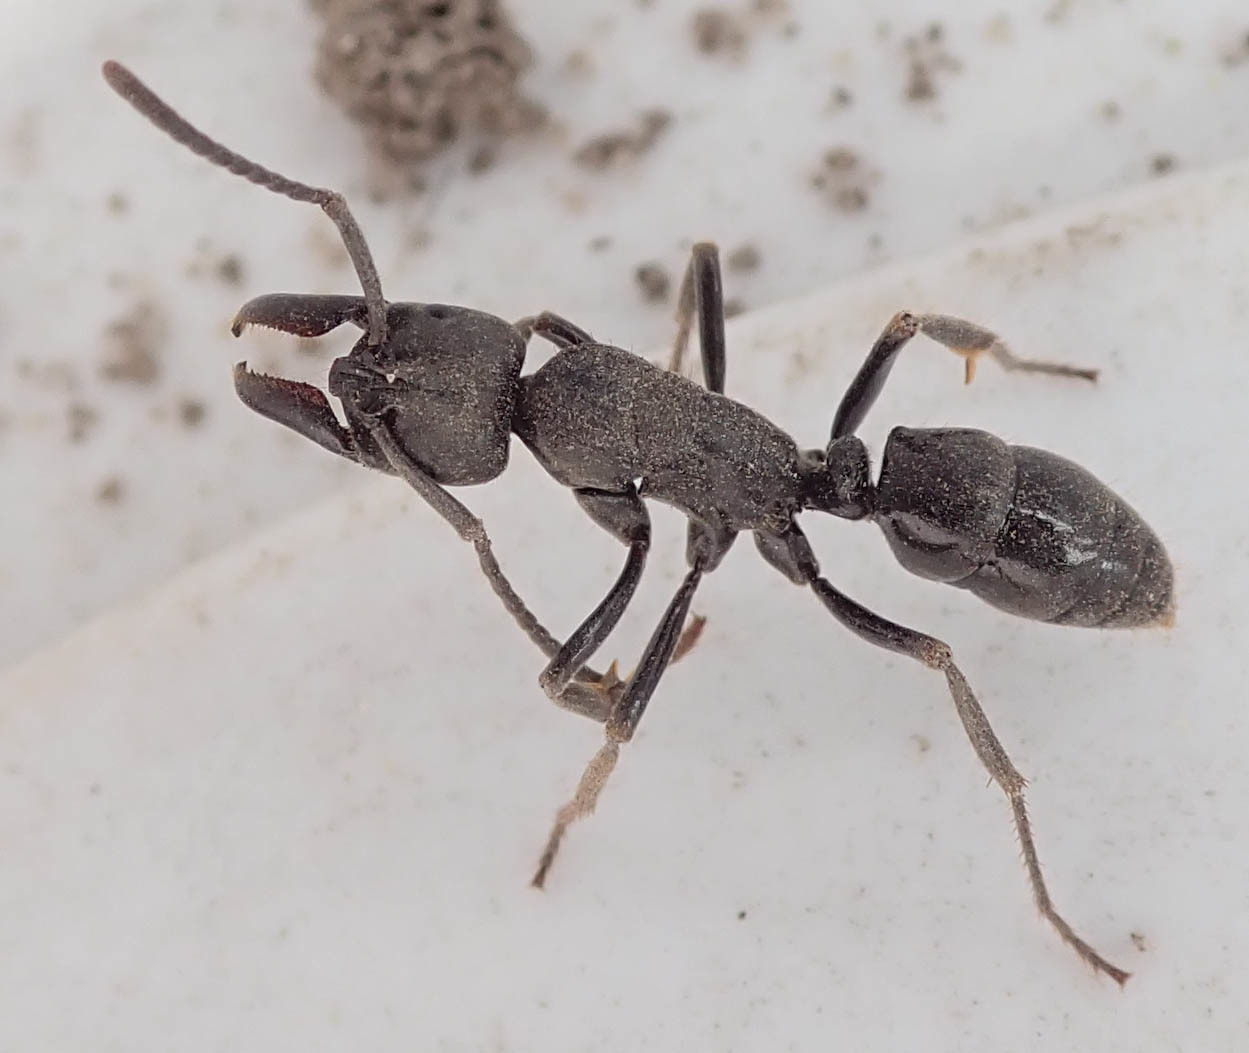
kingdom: Animalia
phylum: Arthropoda
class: Insecta
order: Hymenoptera
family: Formicidae
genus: Paltothyreus
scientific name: Paltothyreus tarsatus
